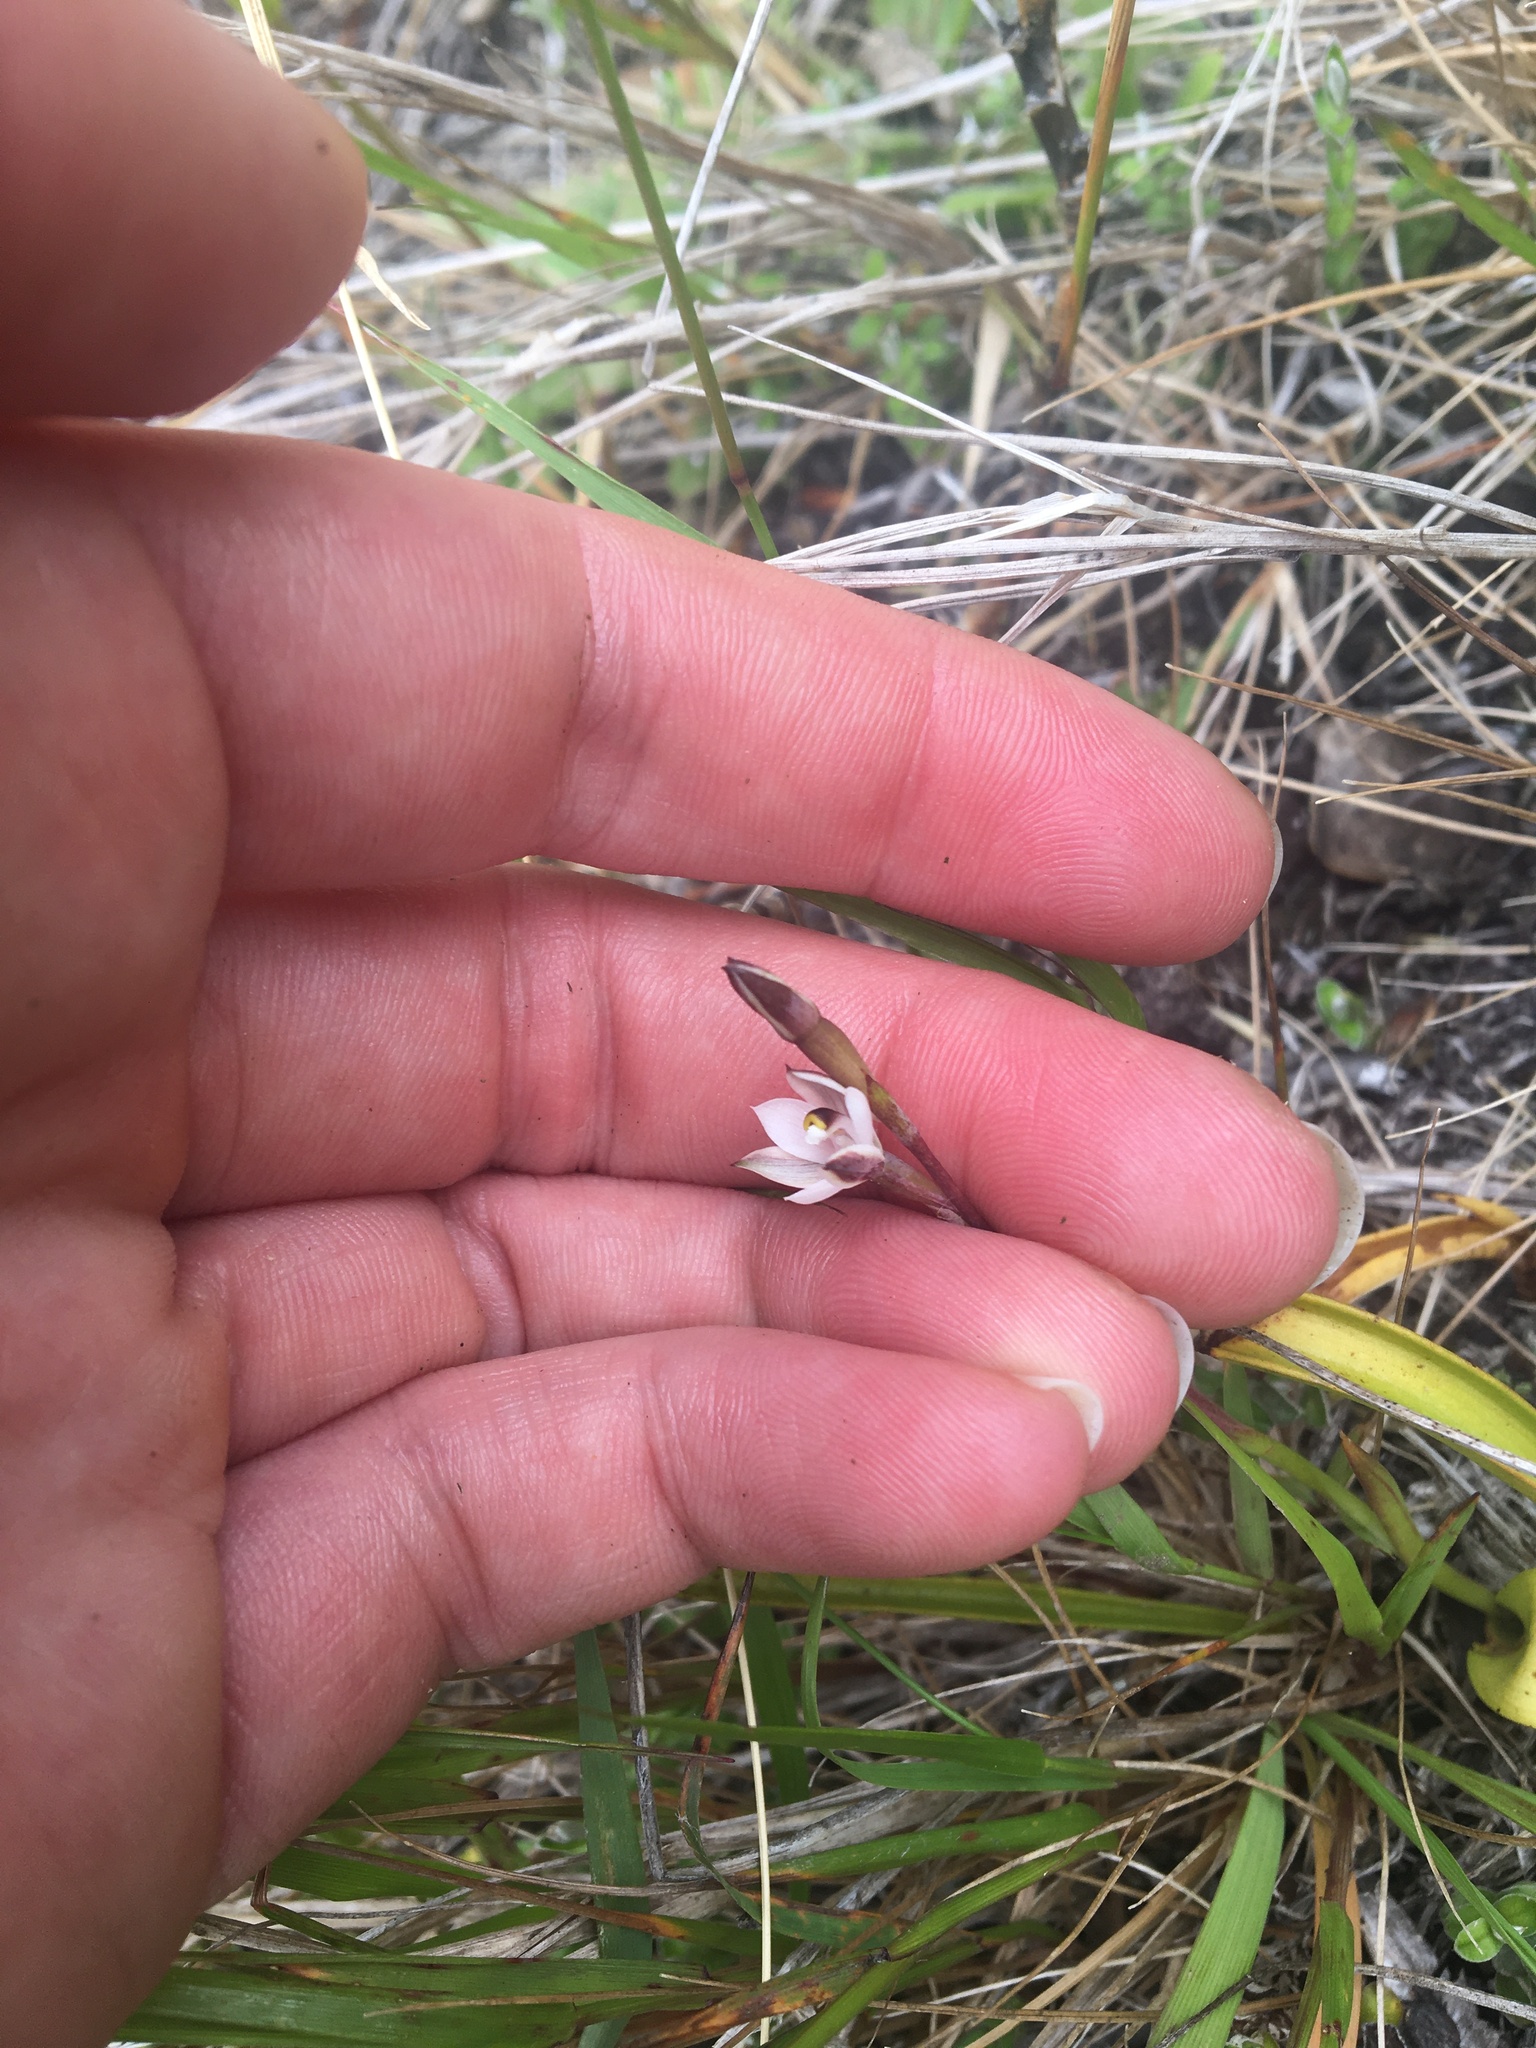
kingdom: Plantae
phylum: Tracheophyta
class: Liliopsida
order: Asparagales
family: Orchidaceae
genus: Thelymitra
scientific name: Thelymitra longifolia
